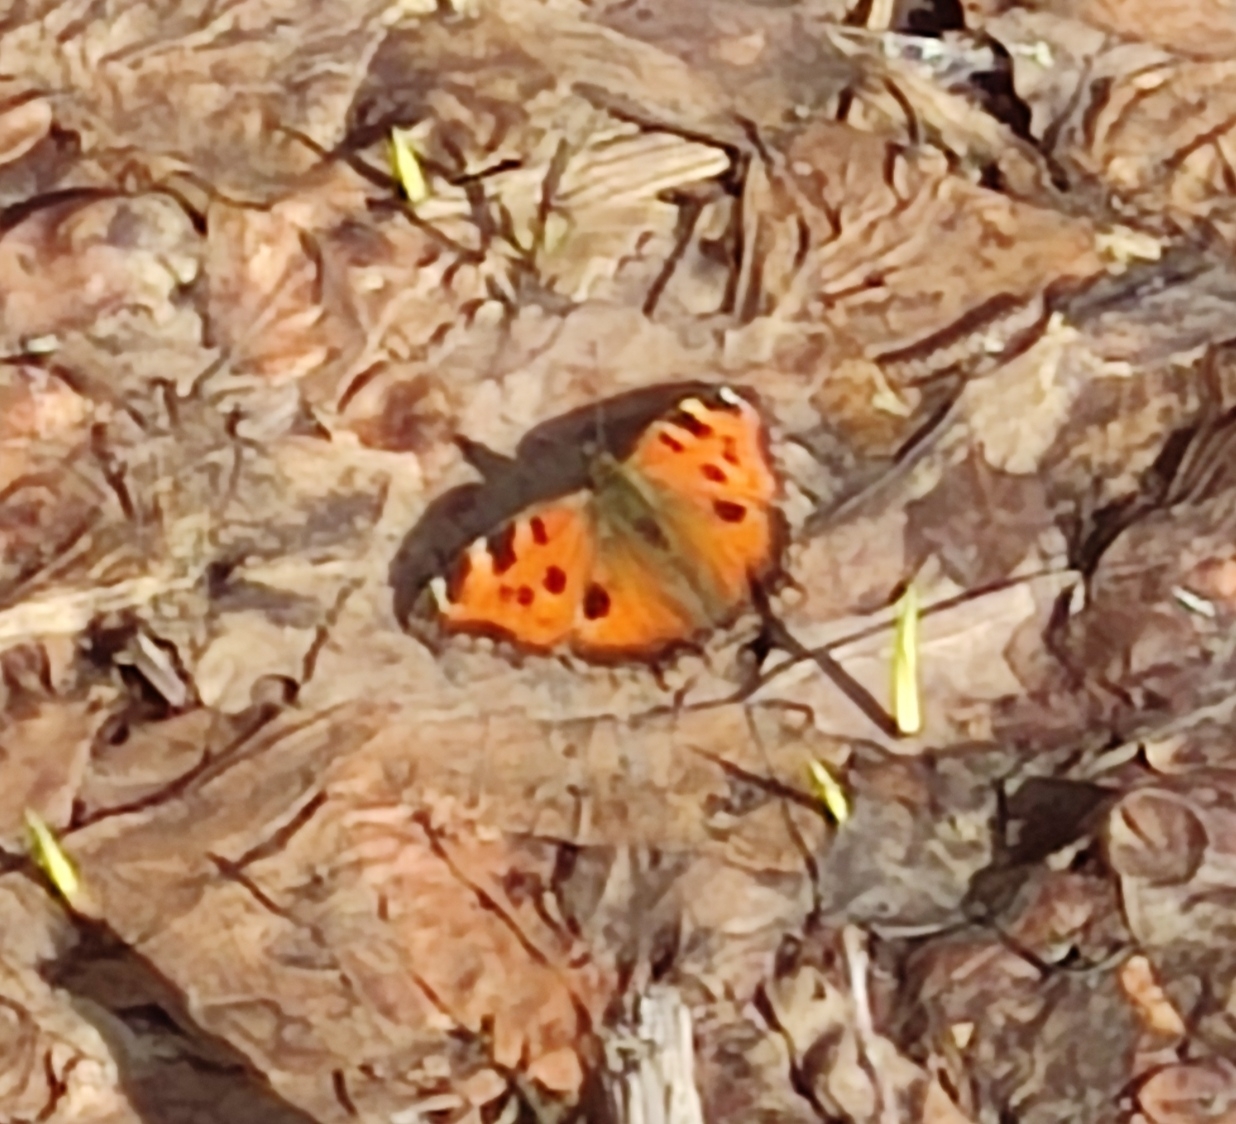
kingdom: Animalia
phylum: Arthropoda
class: Insecta
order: Lepidoptera
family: Nymphalidae
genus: Nymphalis
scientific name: Nymphalis xanthomelas
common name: Scarce tortoiseshell
